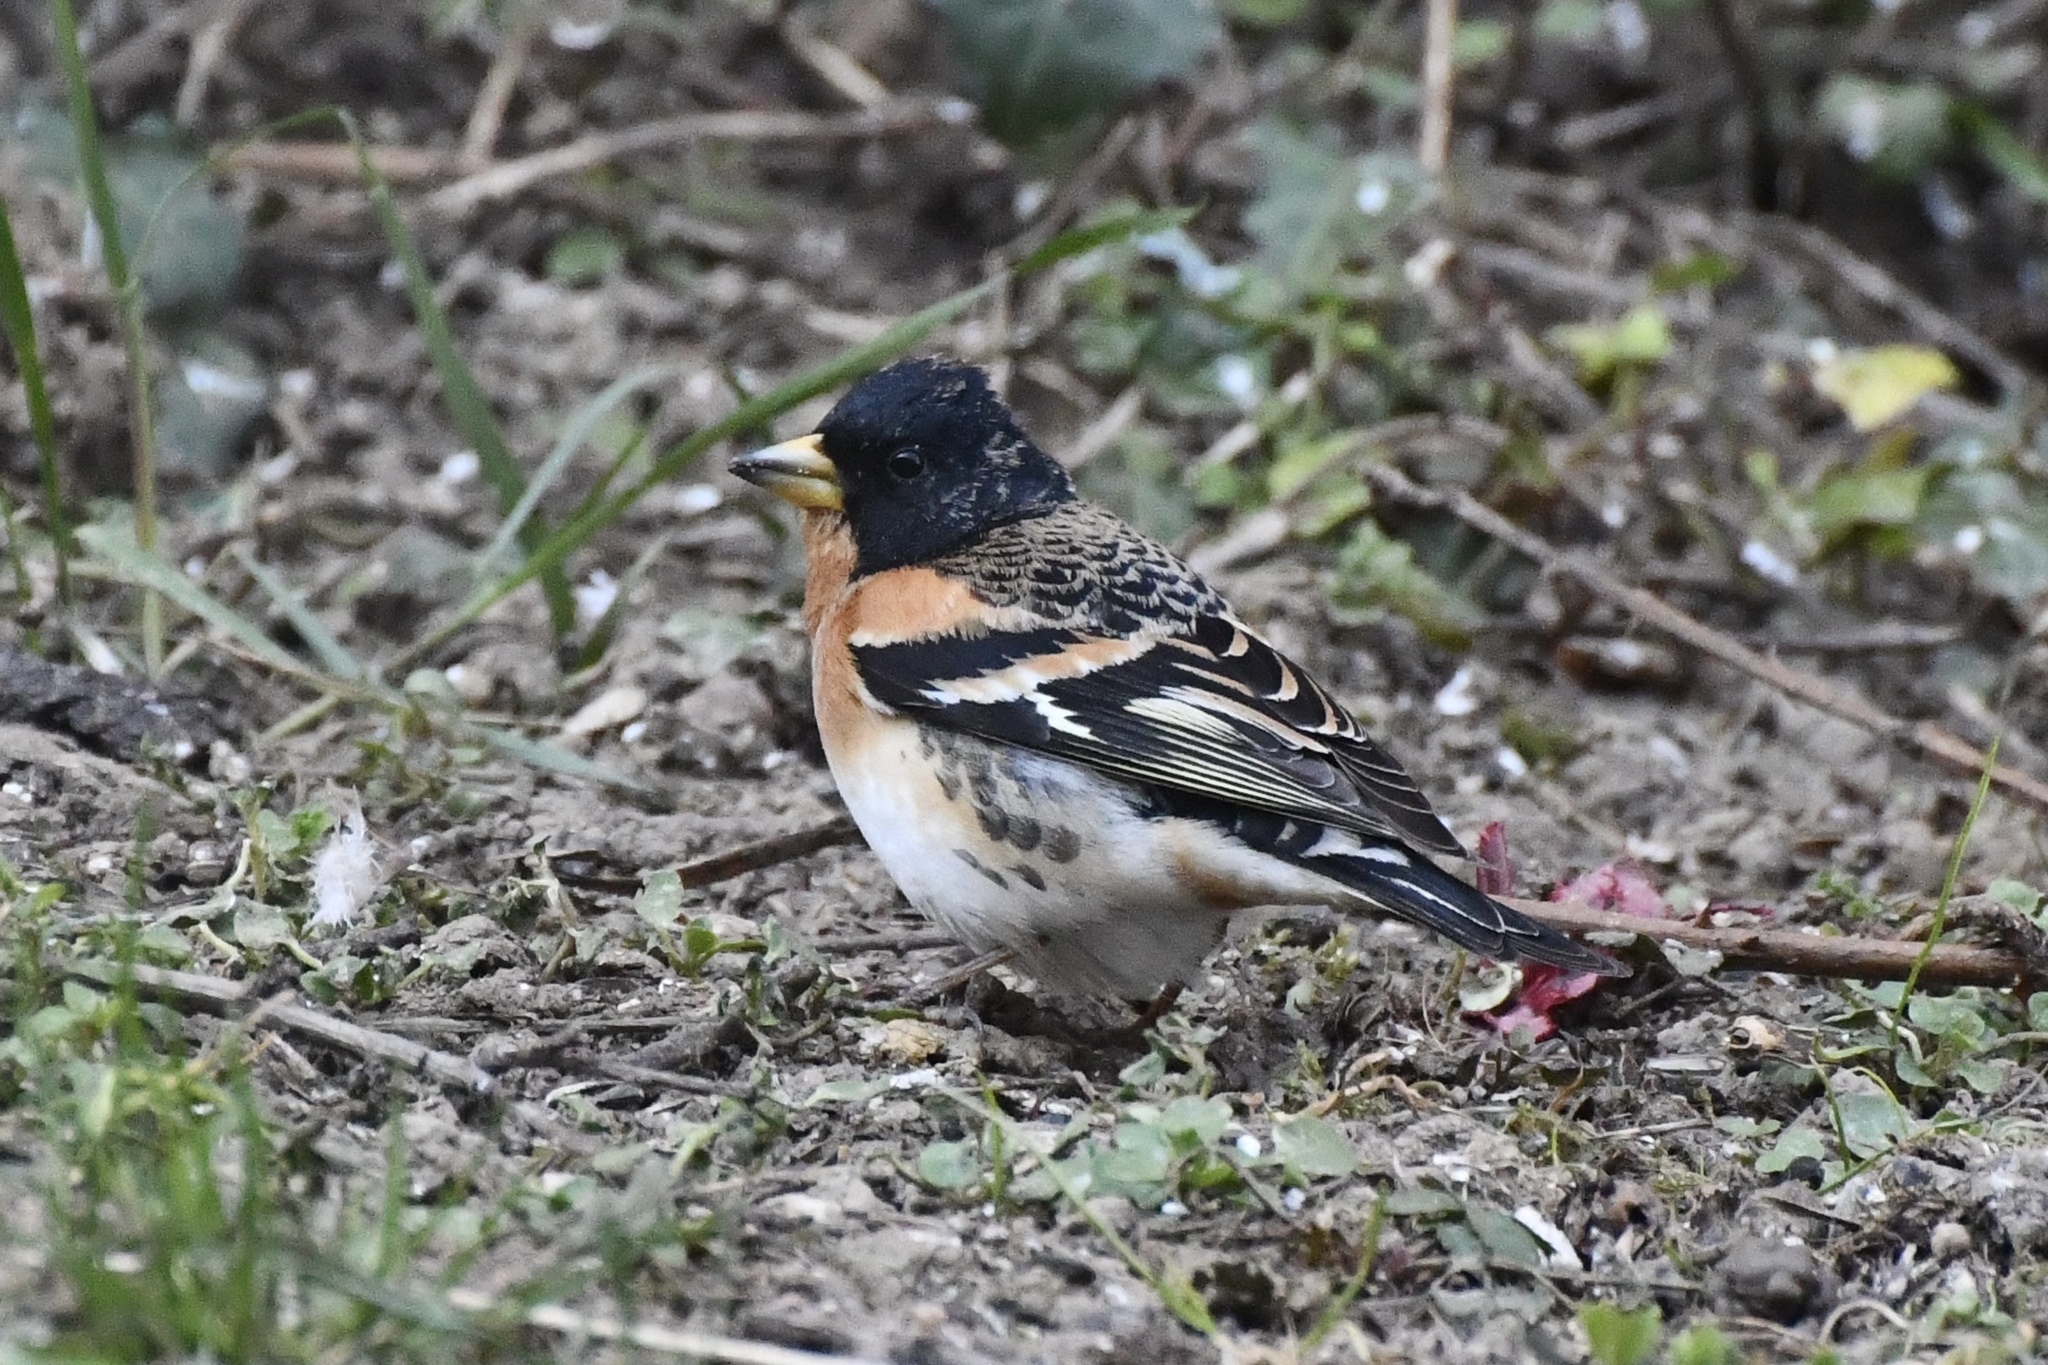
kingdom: Animalia
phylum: Chordata
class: Aves
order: Passeriformes
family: Fringillidae
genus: Fringilla
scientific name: Fringilla montifringilla
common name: Brambling
